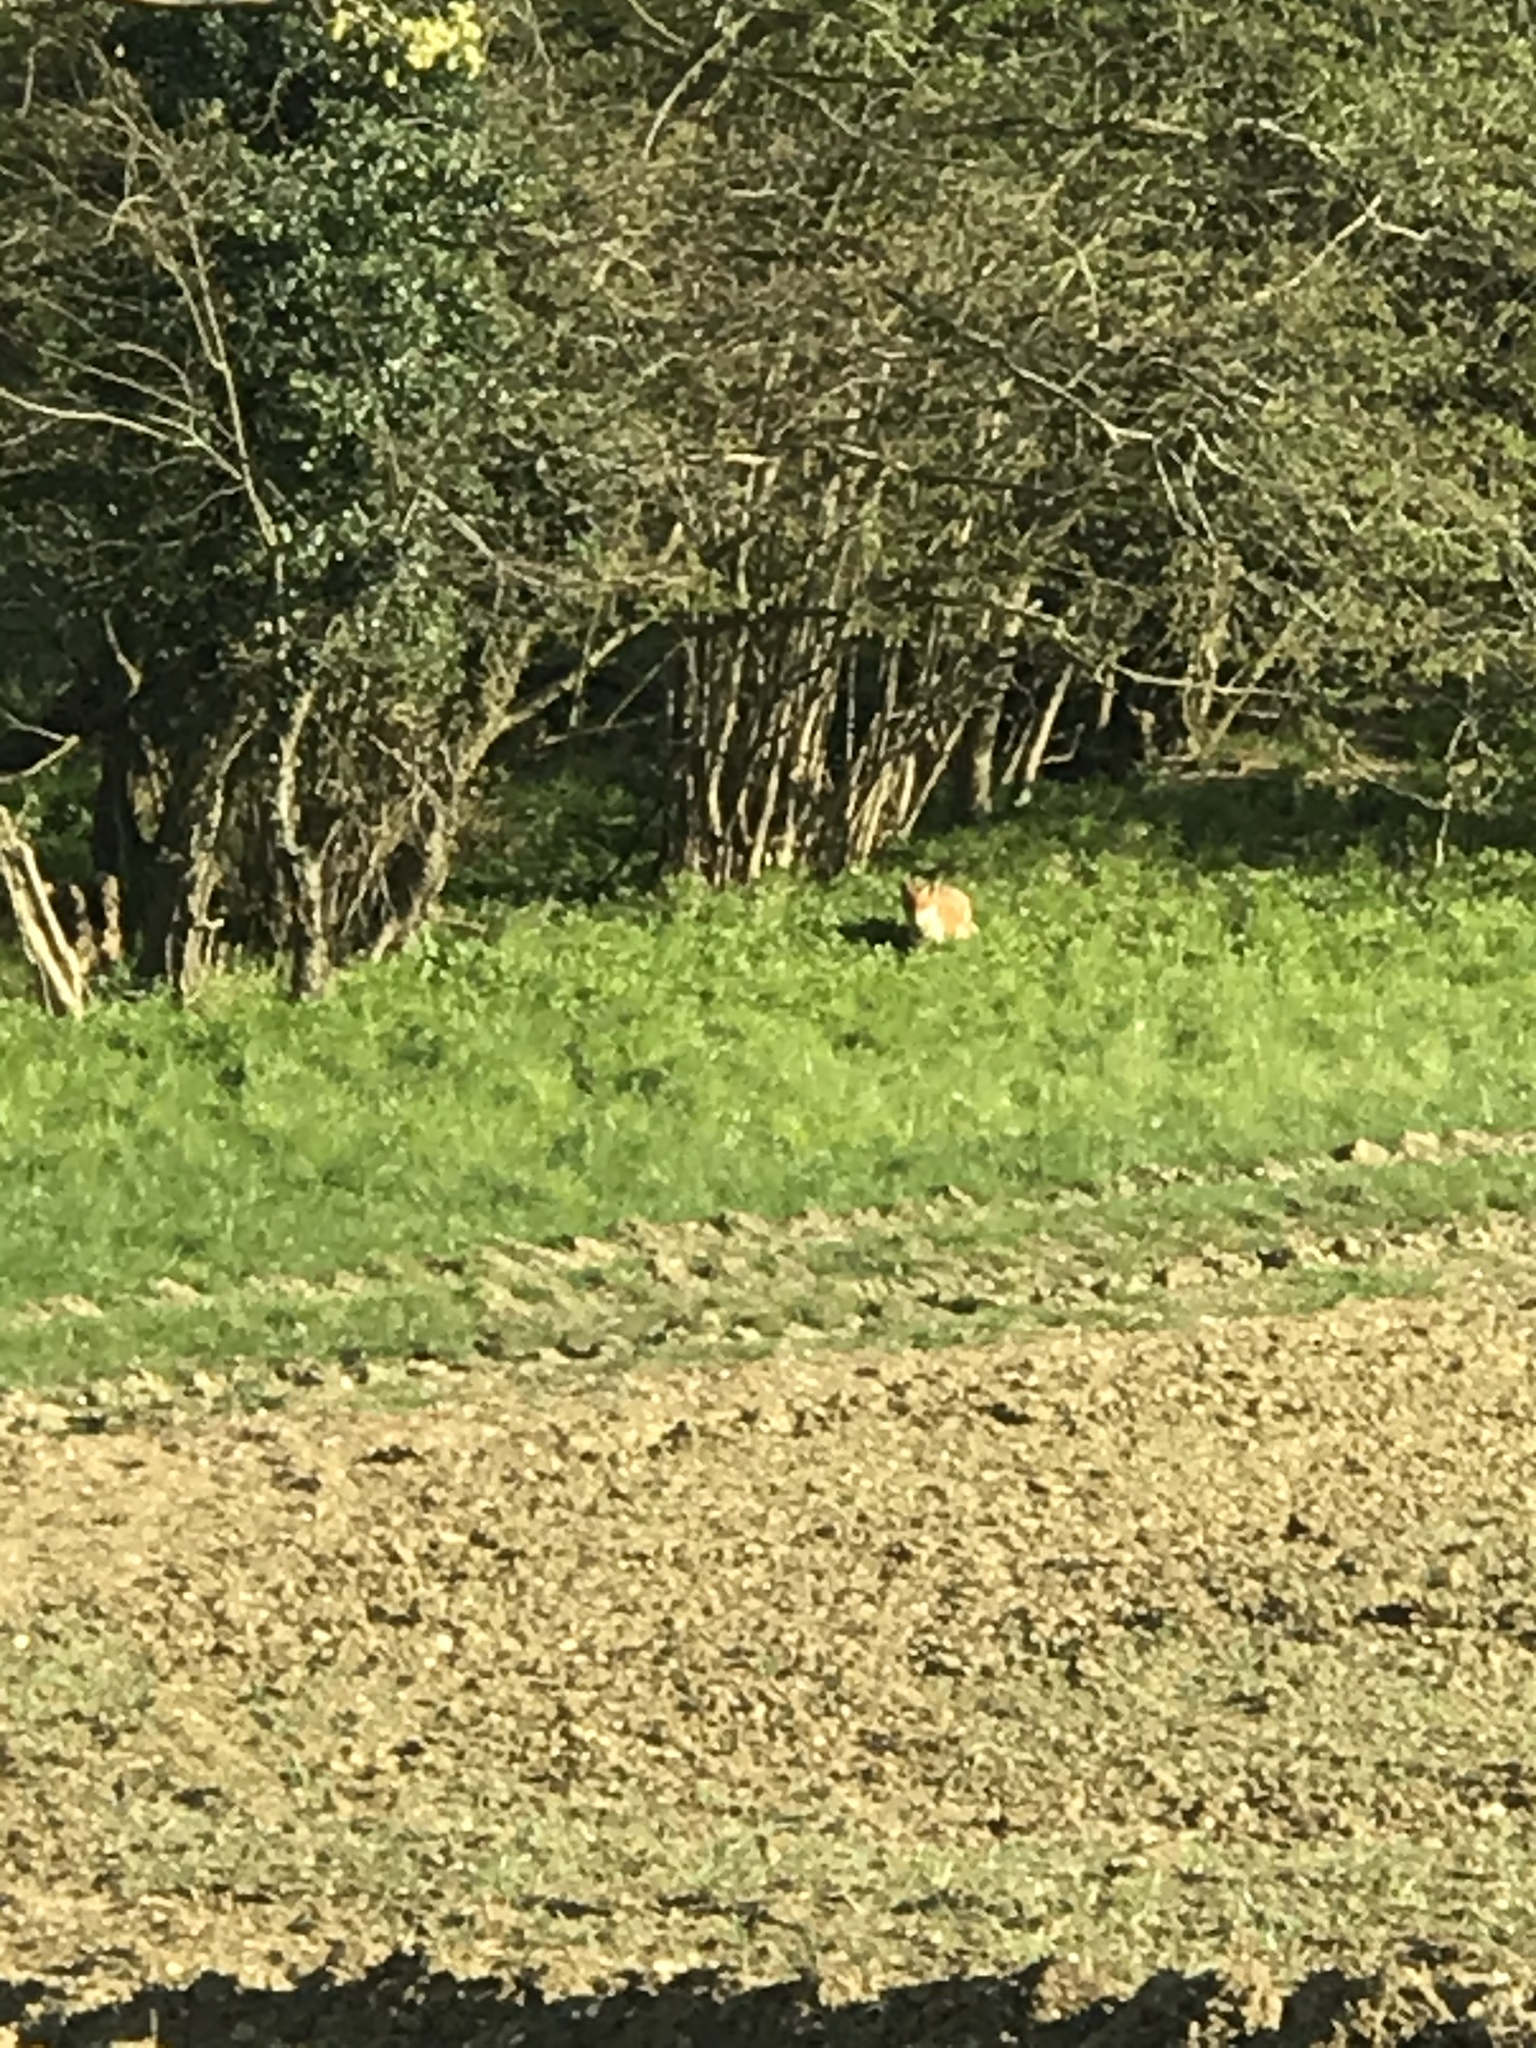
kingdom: Animalia
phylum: Chordata
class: Mammalia
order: Carnivora
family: Canidae
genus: Vulpes
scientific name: Vulpes vulpes
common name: Red fox
